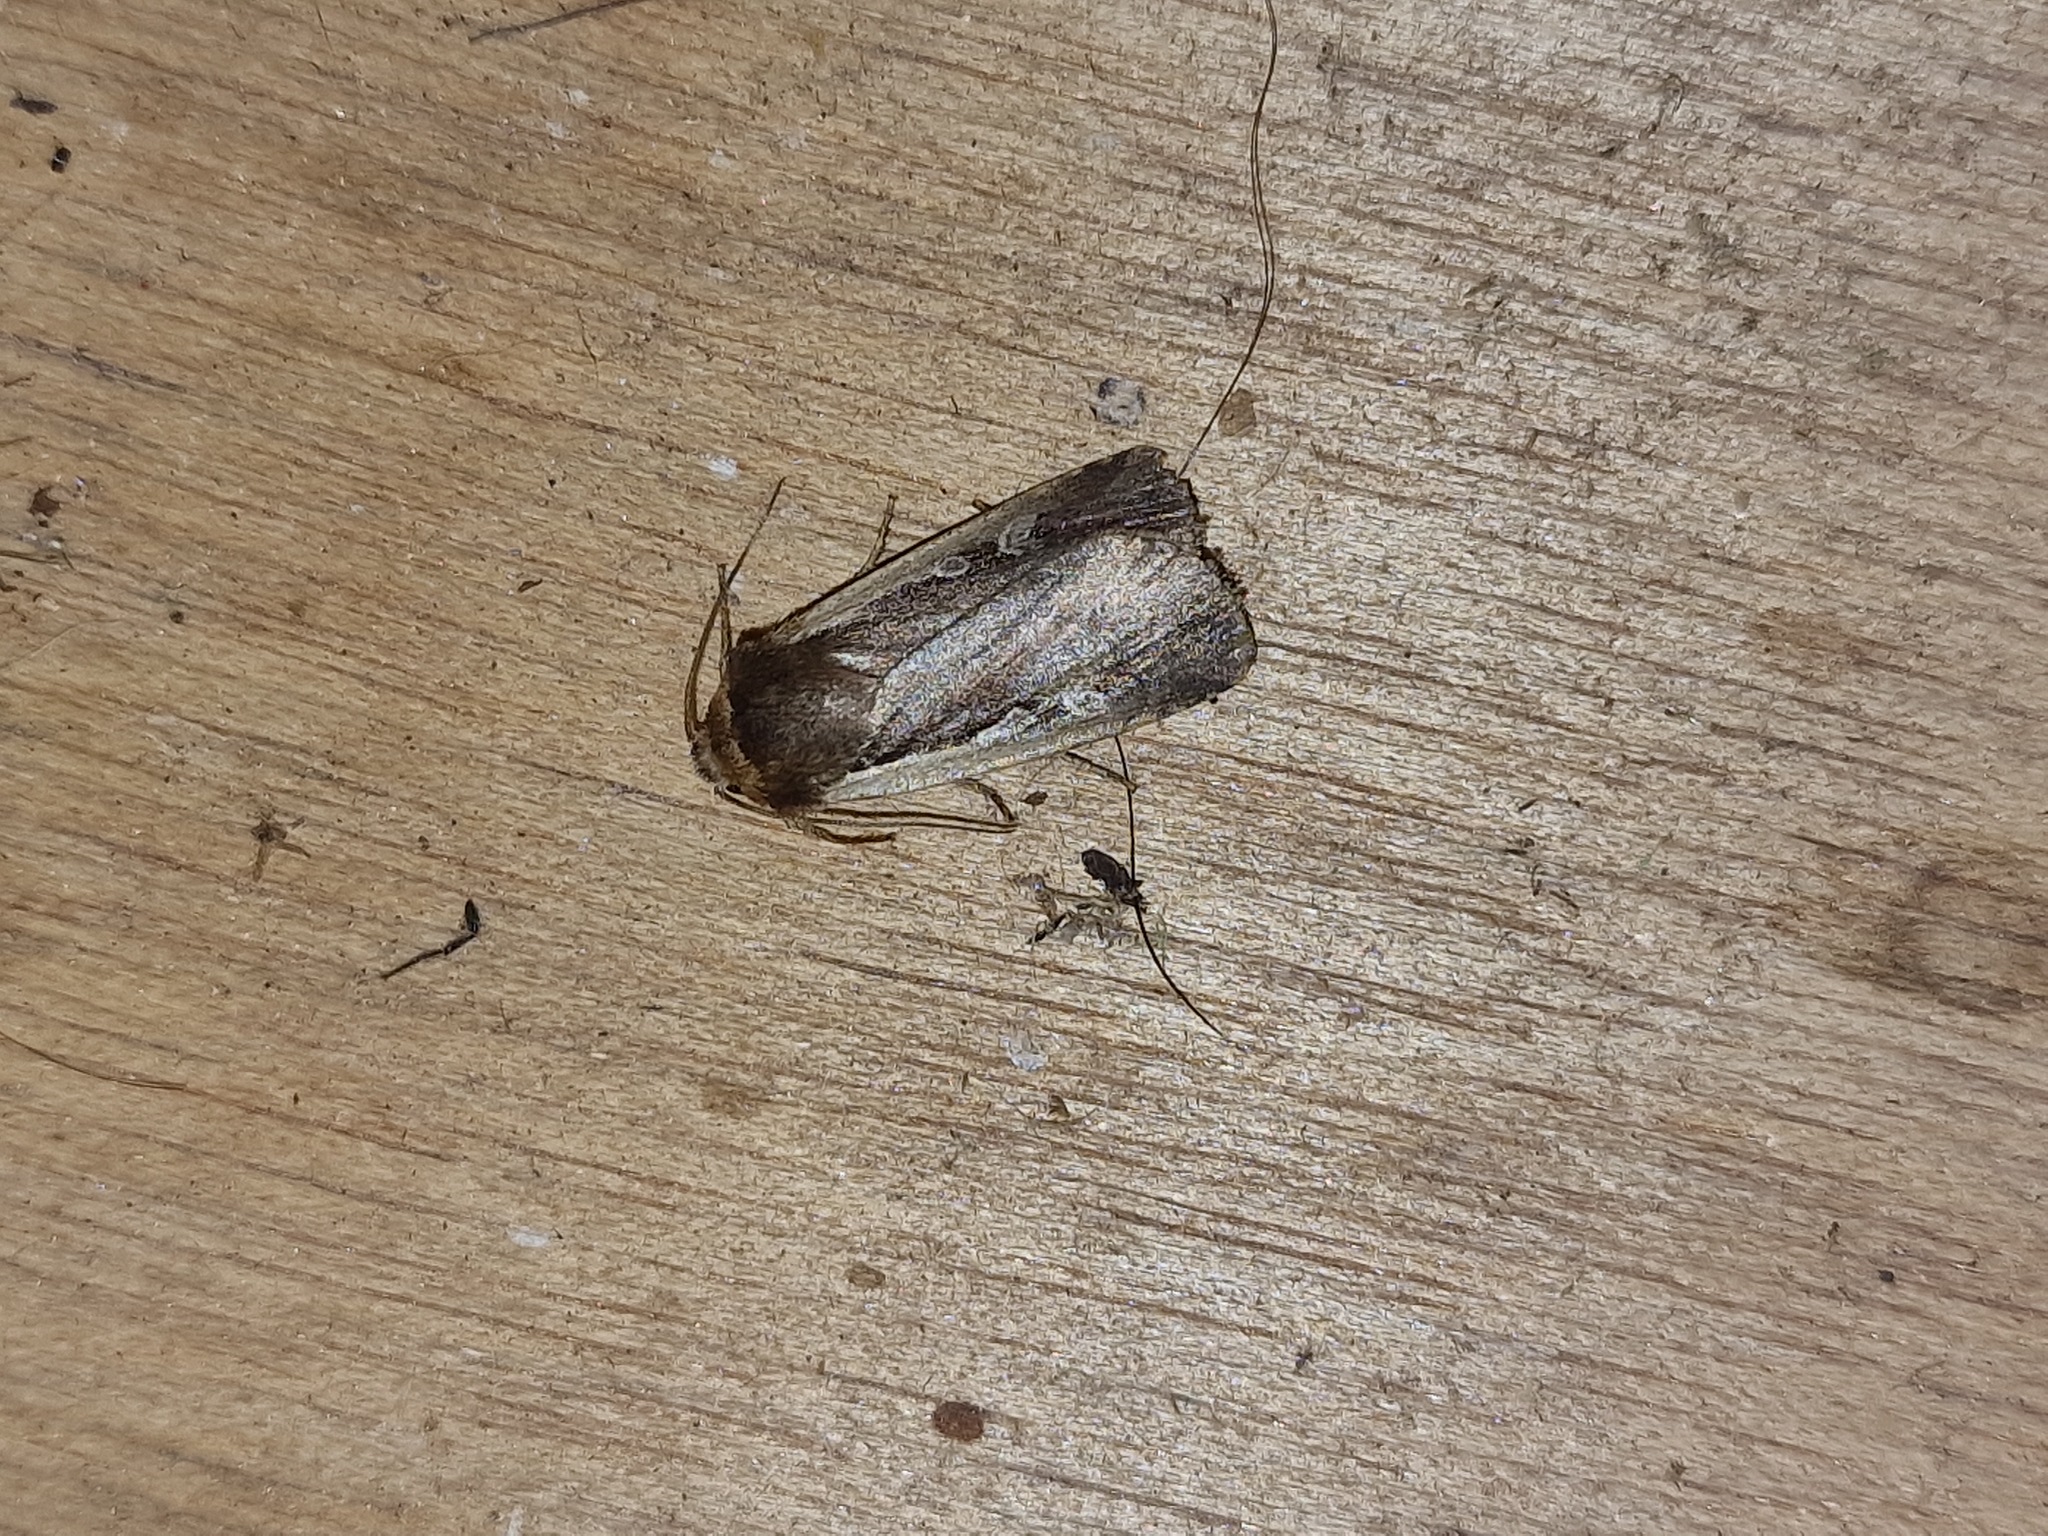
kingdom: Animalia
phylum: Arthropoda
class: Insecta
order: Lepidoptera
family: Noctuidae
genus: Ochropleura
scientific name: Ochropleura plecta
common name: Flame shoulder
